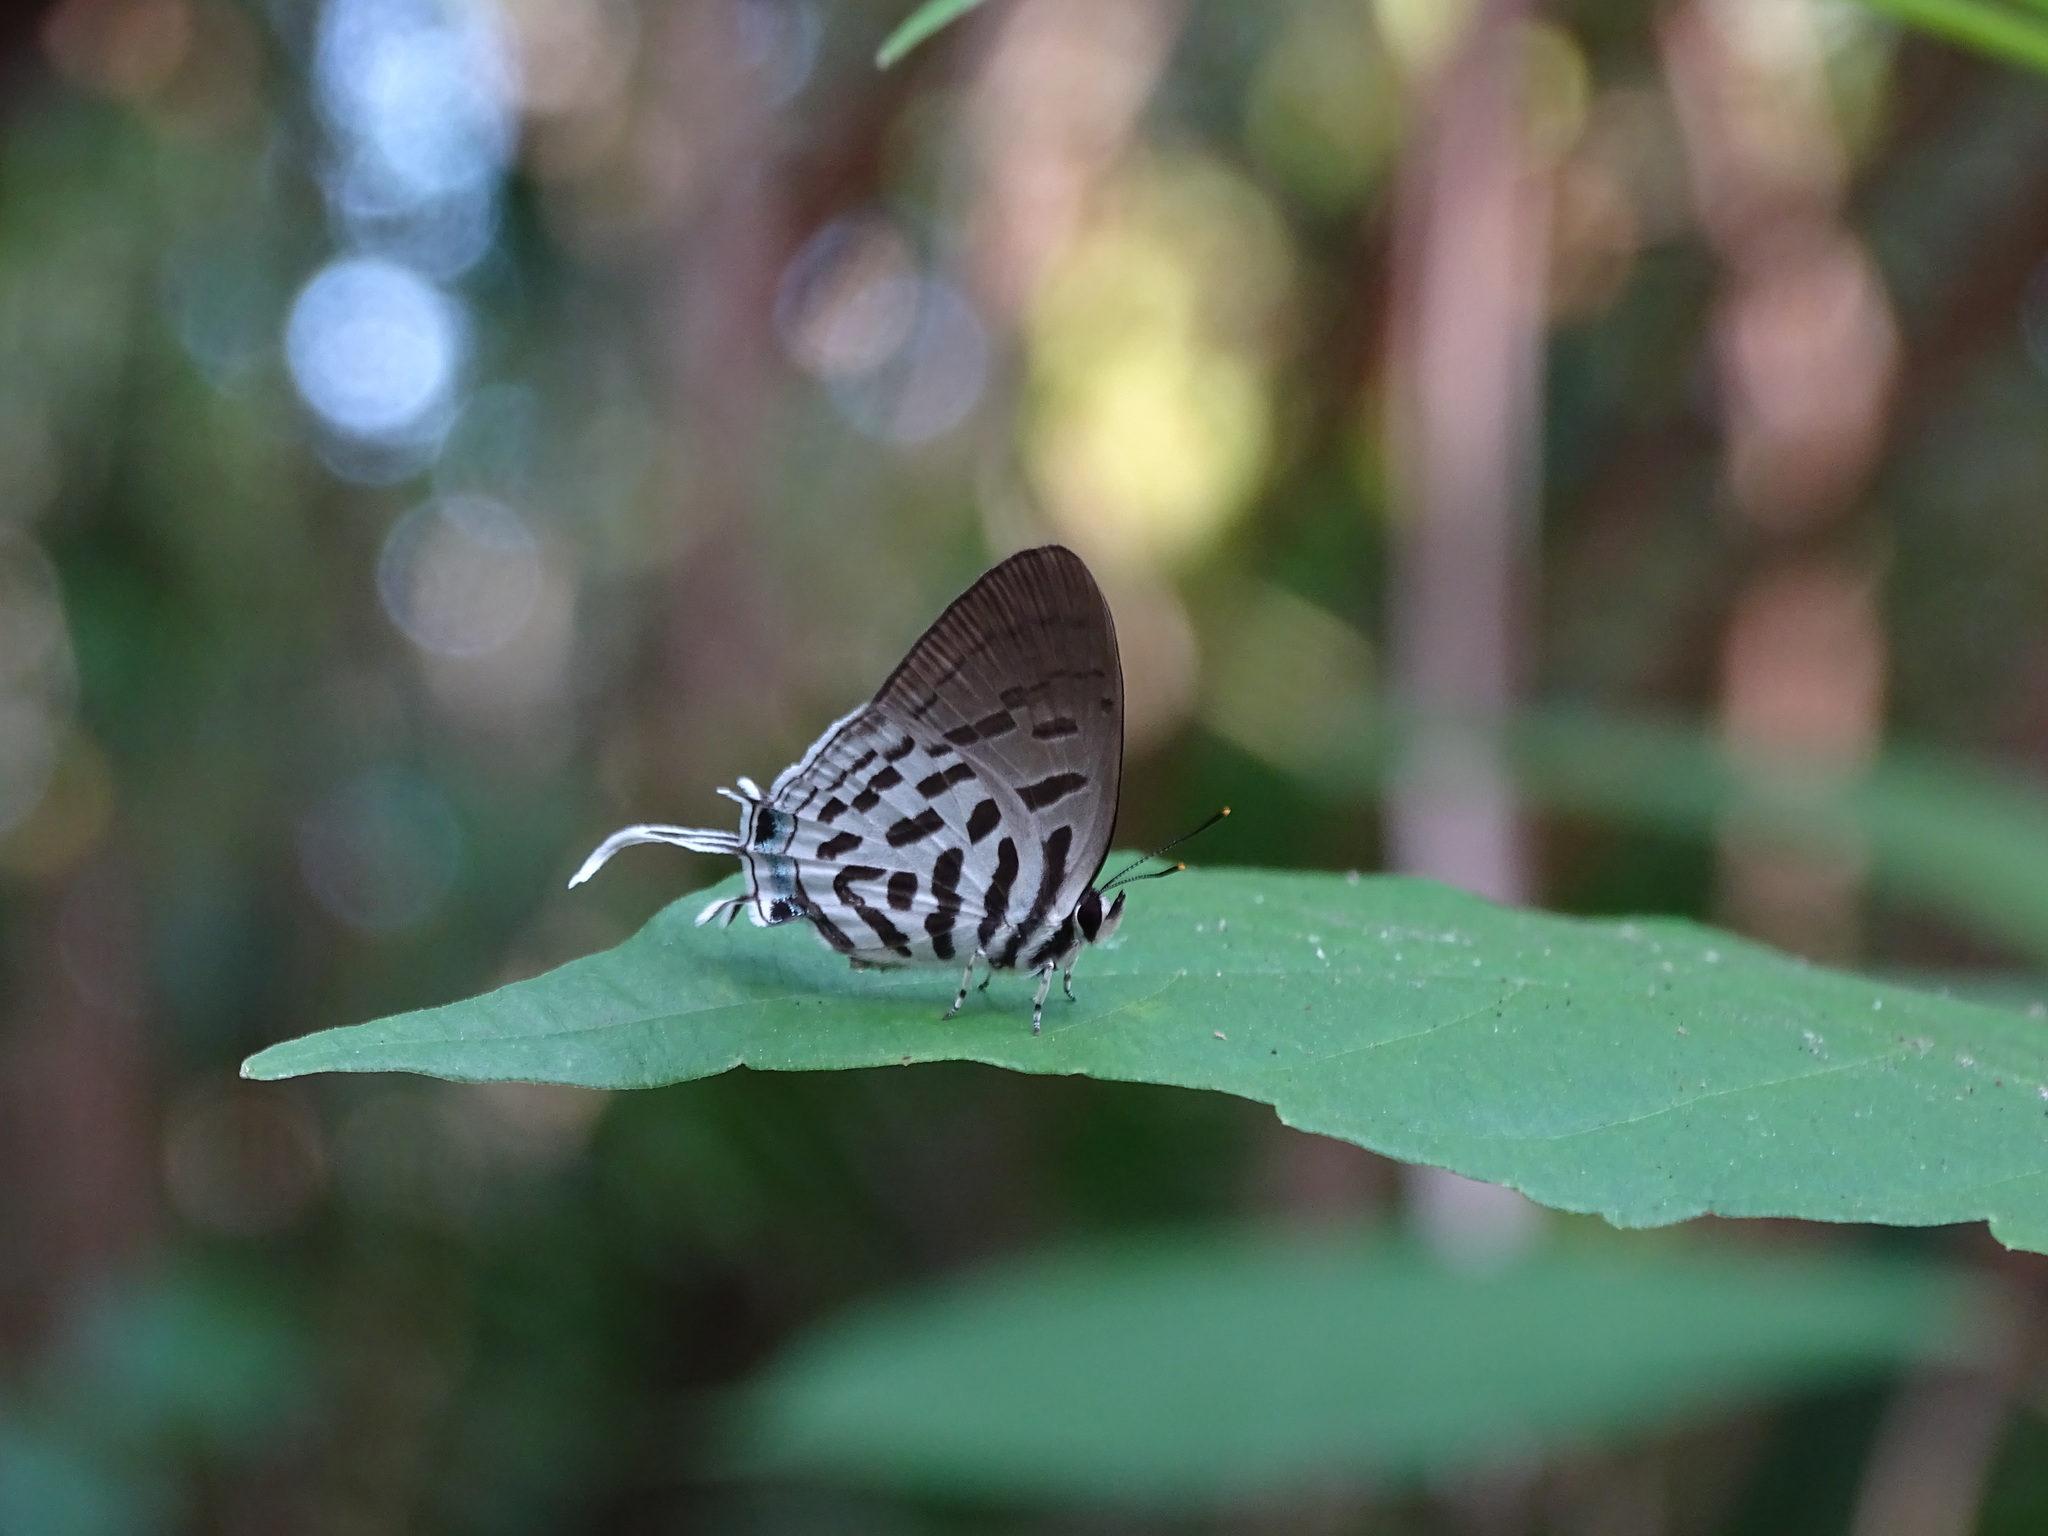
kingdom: Animalia
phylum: Arthropoda
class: Insecta
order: Lepidoptera
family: Lycaenidae
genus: Drupadia
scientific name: Drupadia ravindra
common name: Common posy
